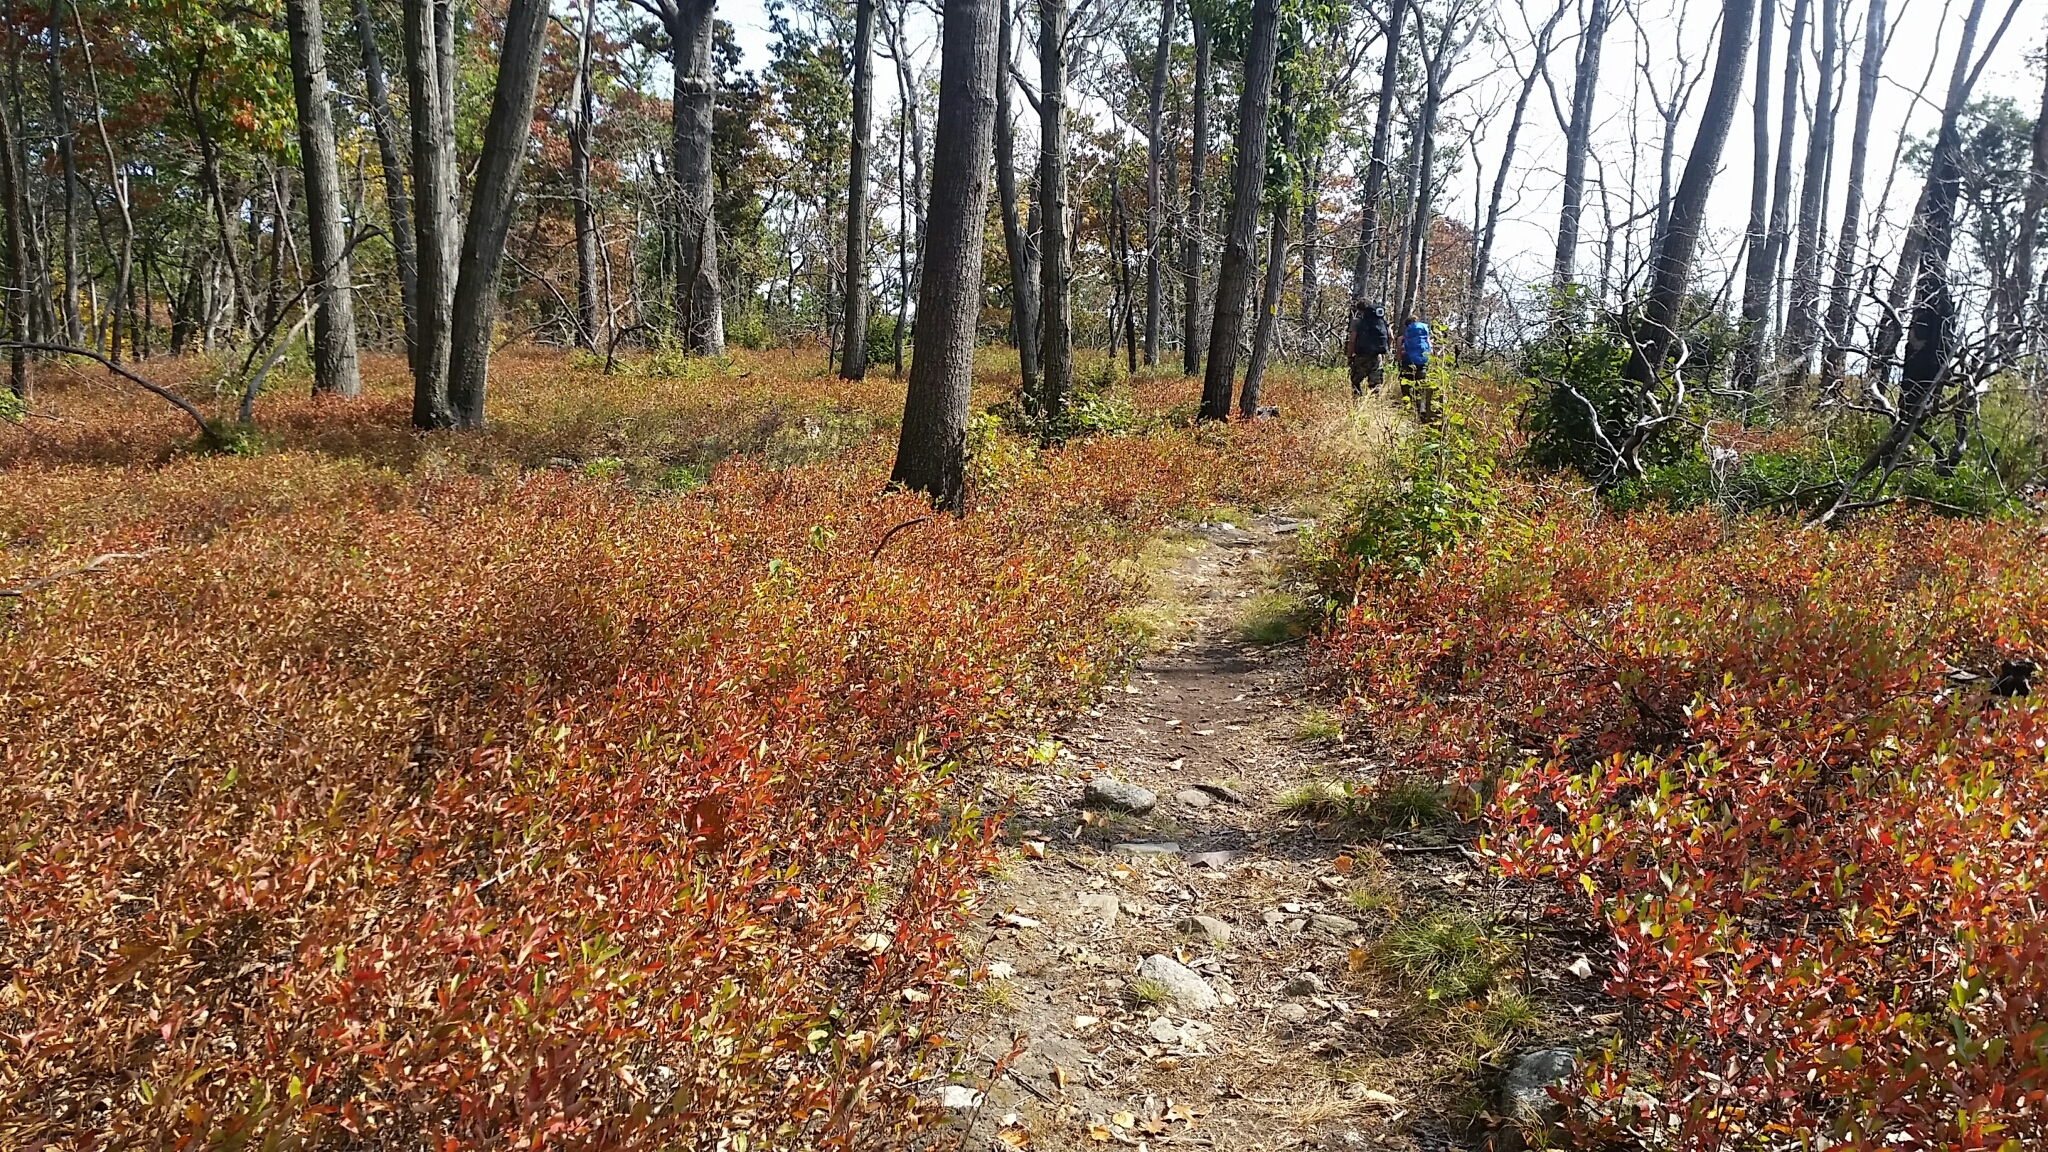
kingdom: Plantae
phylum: Tracheophyta
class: Magnoliopsida
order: Ericales
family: Ericaceae
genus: Gaylussacia
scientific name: Gaylussacia baccata
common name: Black huckleberry
